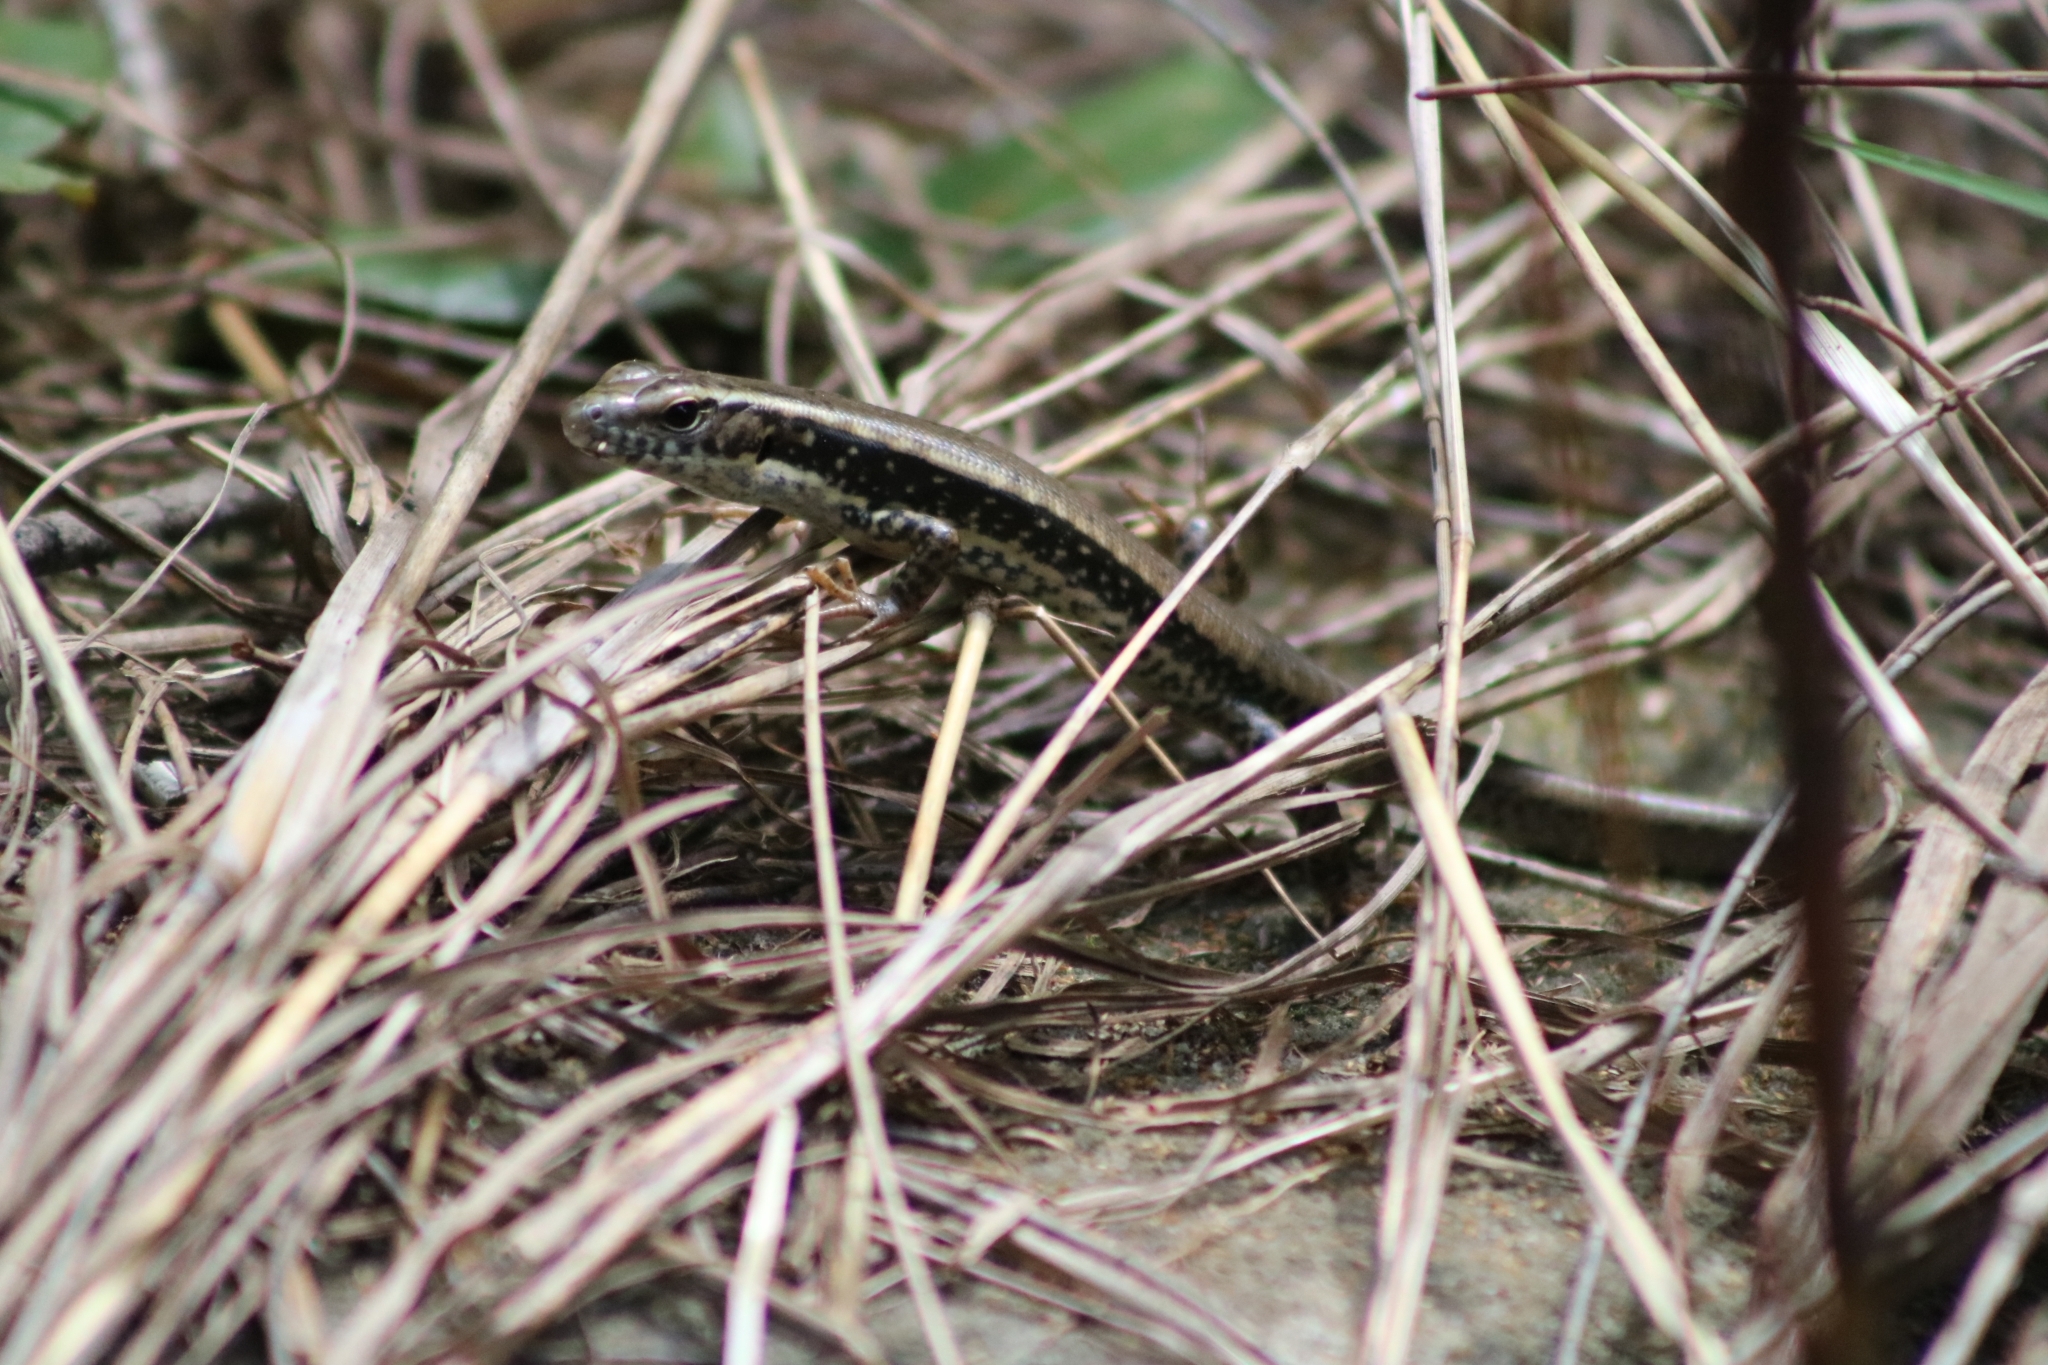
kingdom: Animalia
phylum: Chordata
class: Squamata
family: Scincidae
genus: Eulamprus
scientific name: Eulamprus quoyii
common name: Eastern water skink
